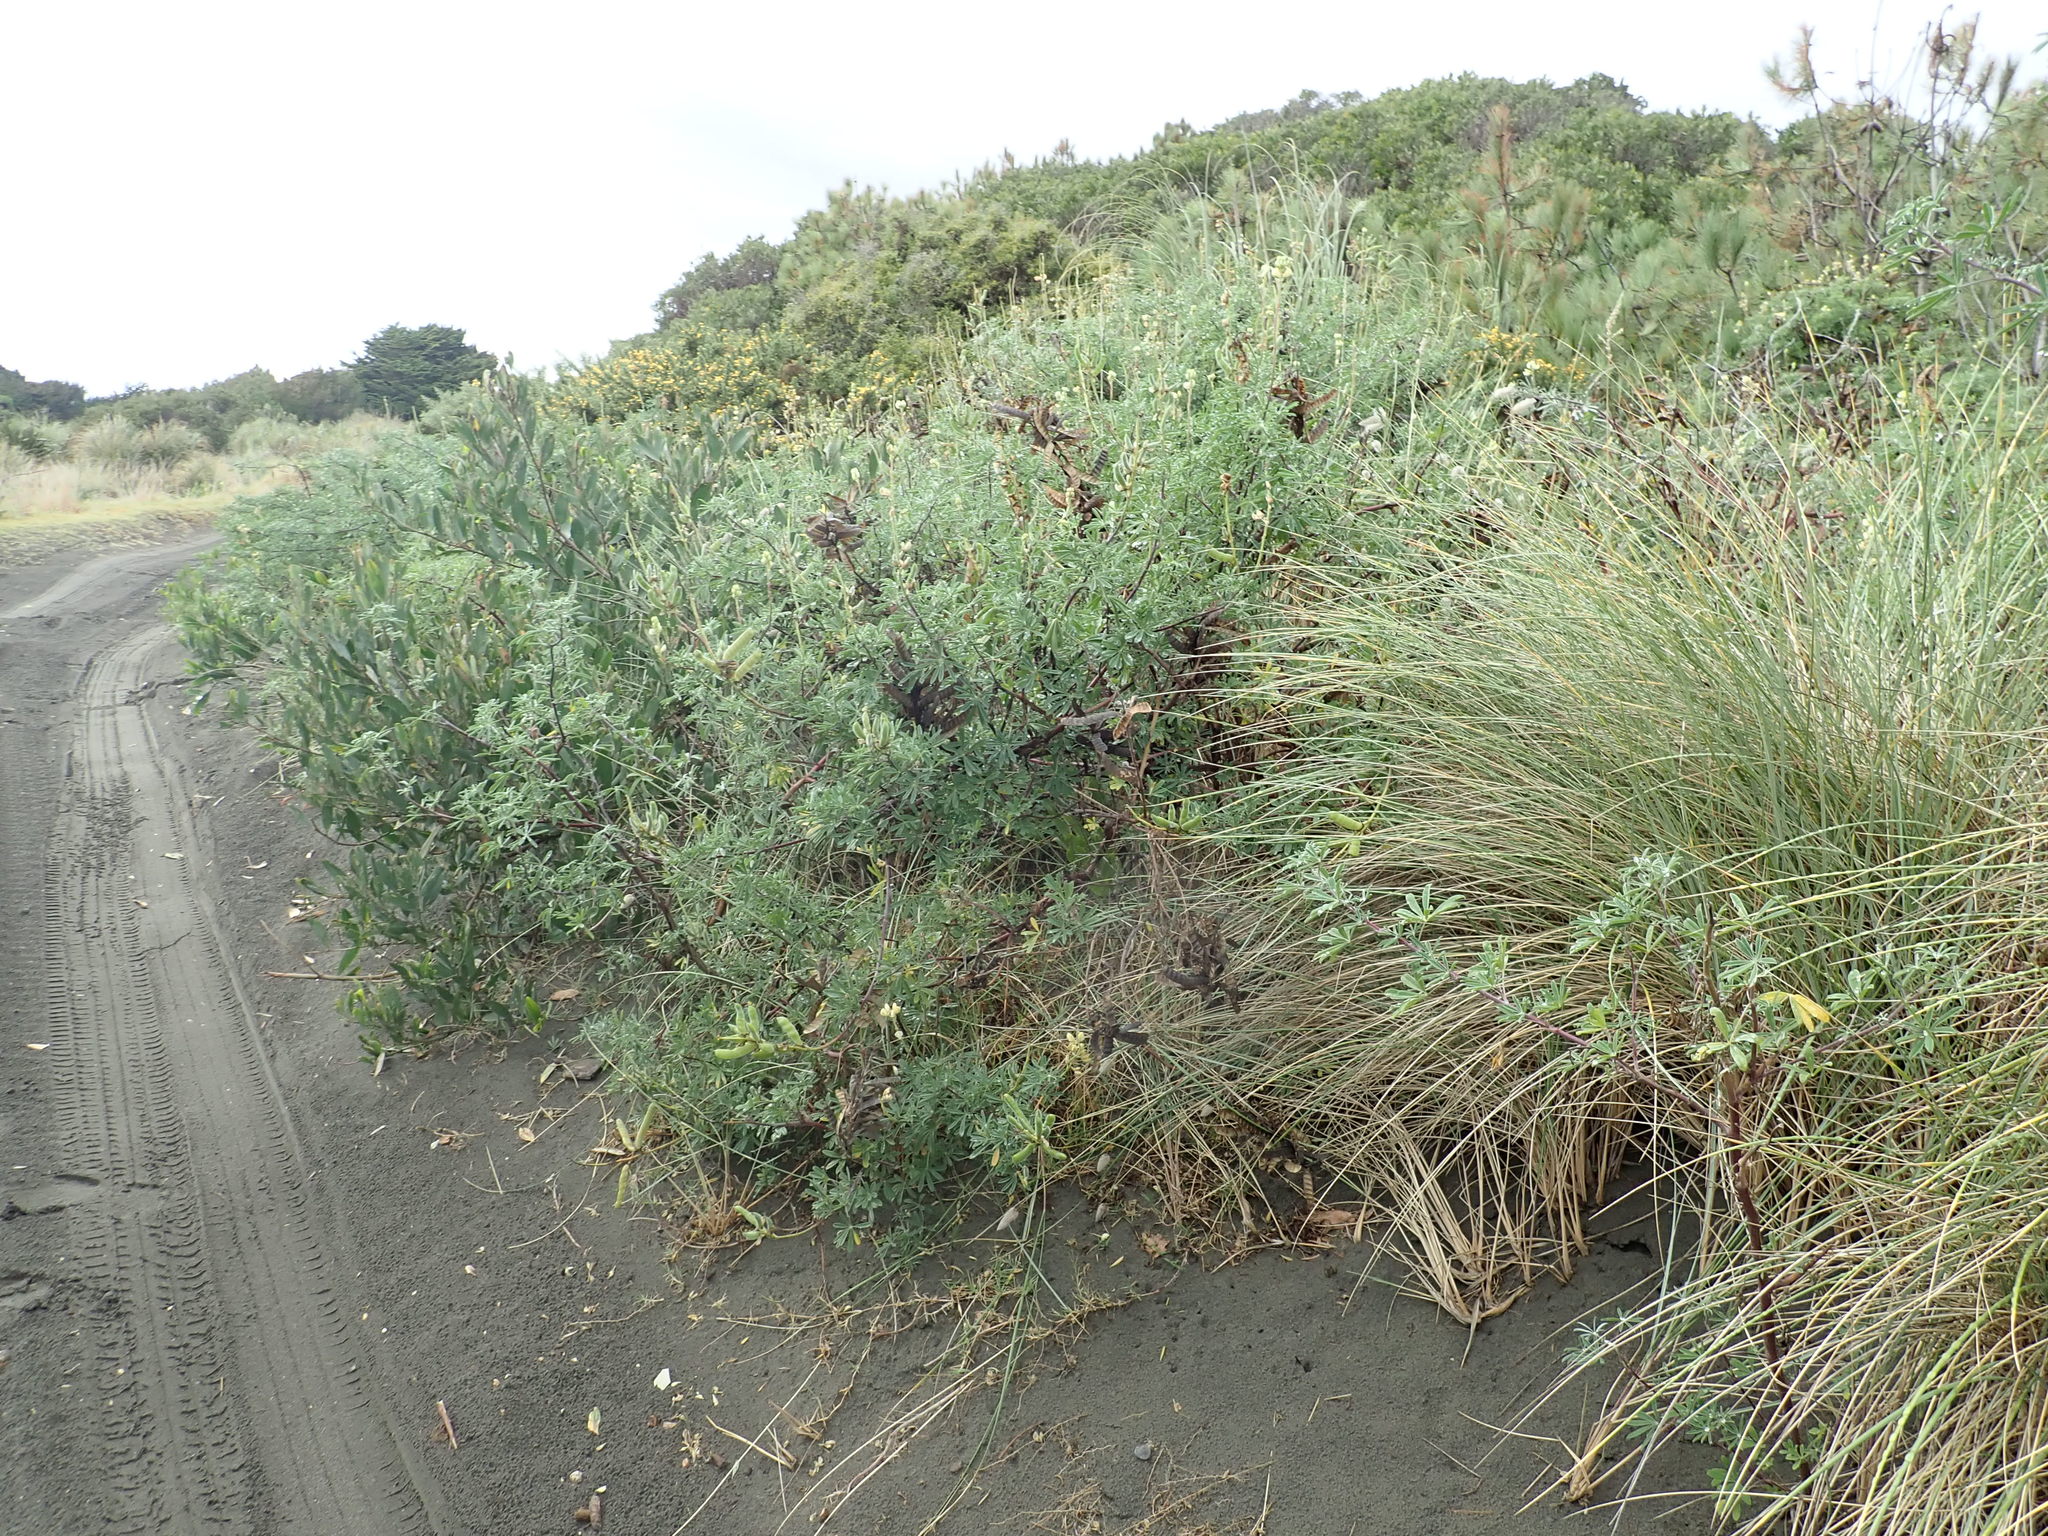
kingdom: Plantae
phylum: Tracheophyta
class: Magnoliopsida
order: Fabales
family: Fabaceae
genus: Lupinus
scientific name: Lupinus arboreus
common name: Yellow bush lupine
